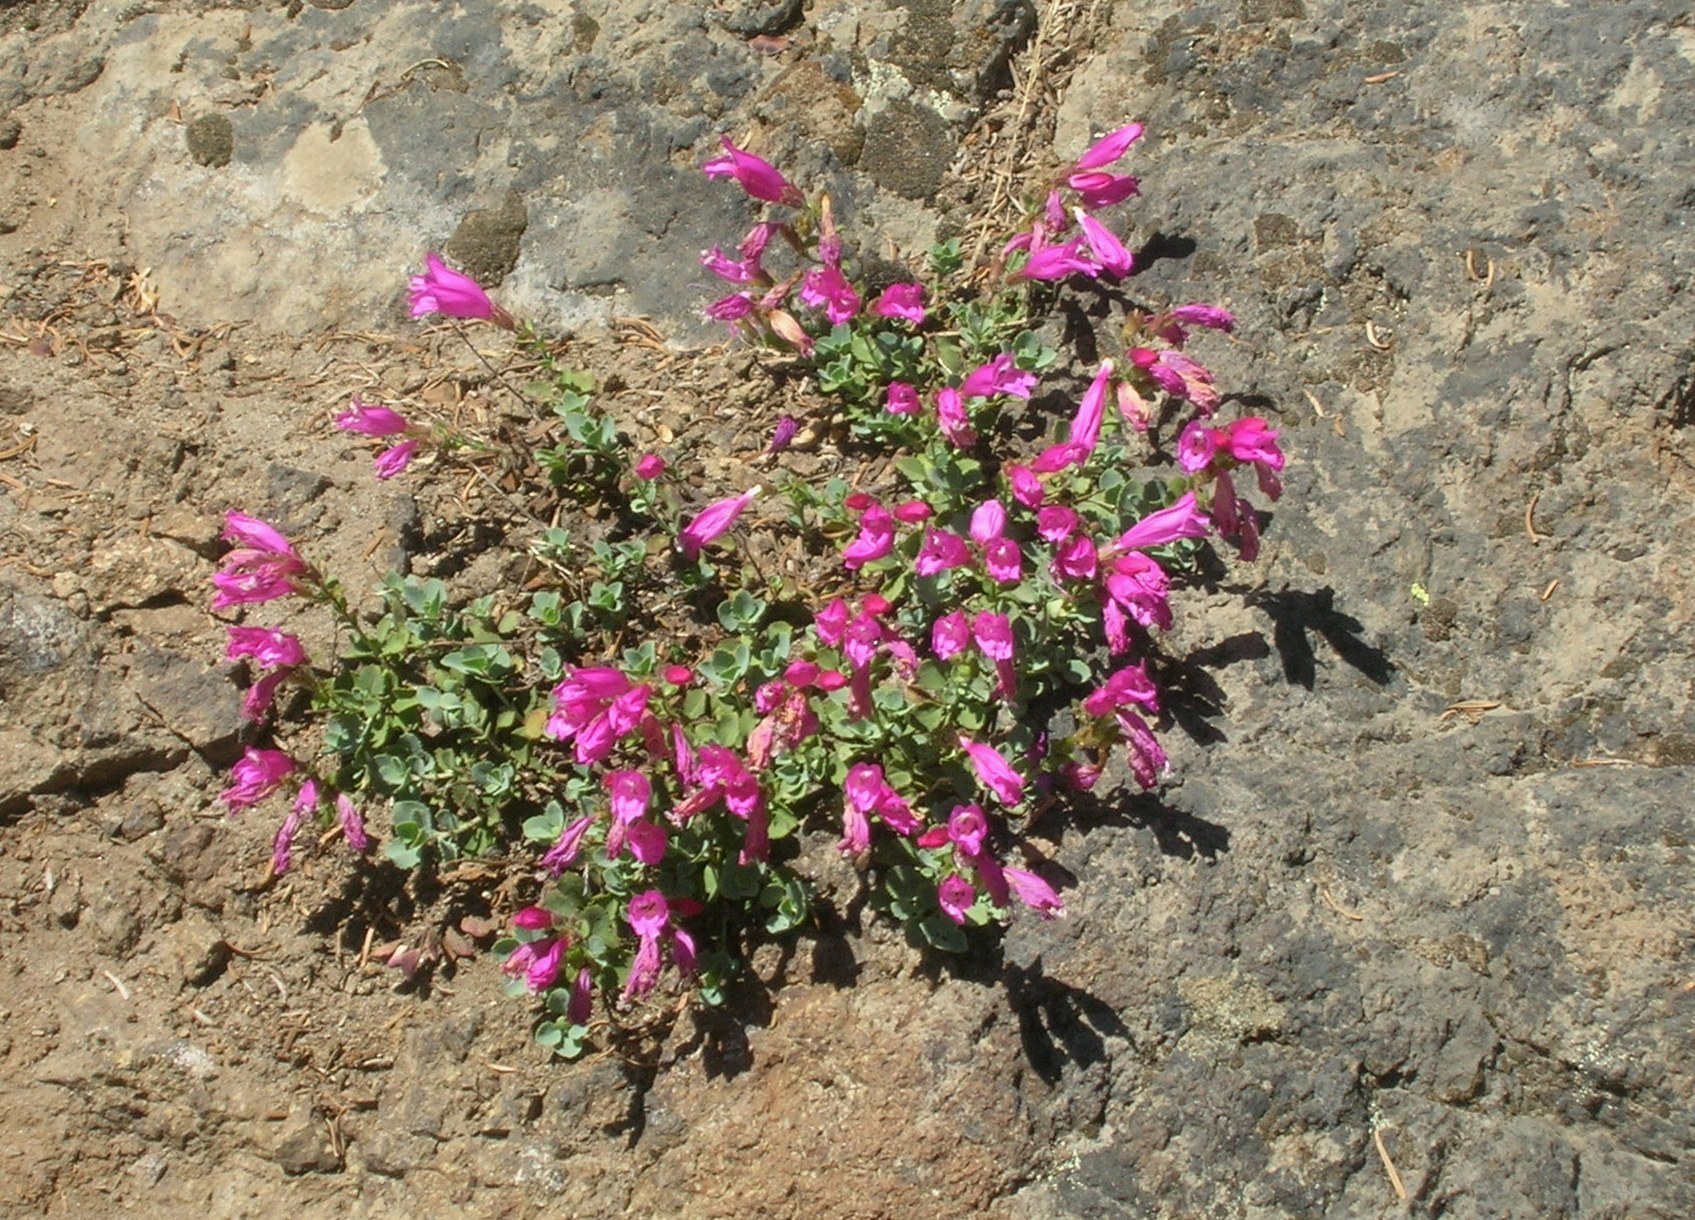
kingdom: Plantae
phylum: Tracheophyta
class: Magnoliopsida
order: Lamiales
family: Plantaginaceae
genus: Penstemon
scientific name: Penstemon rupicola
